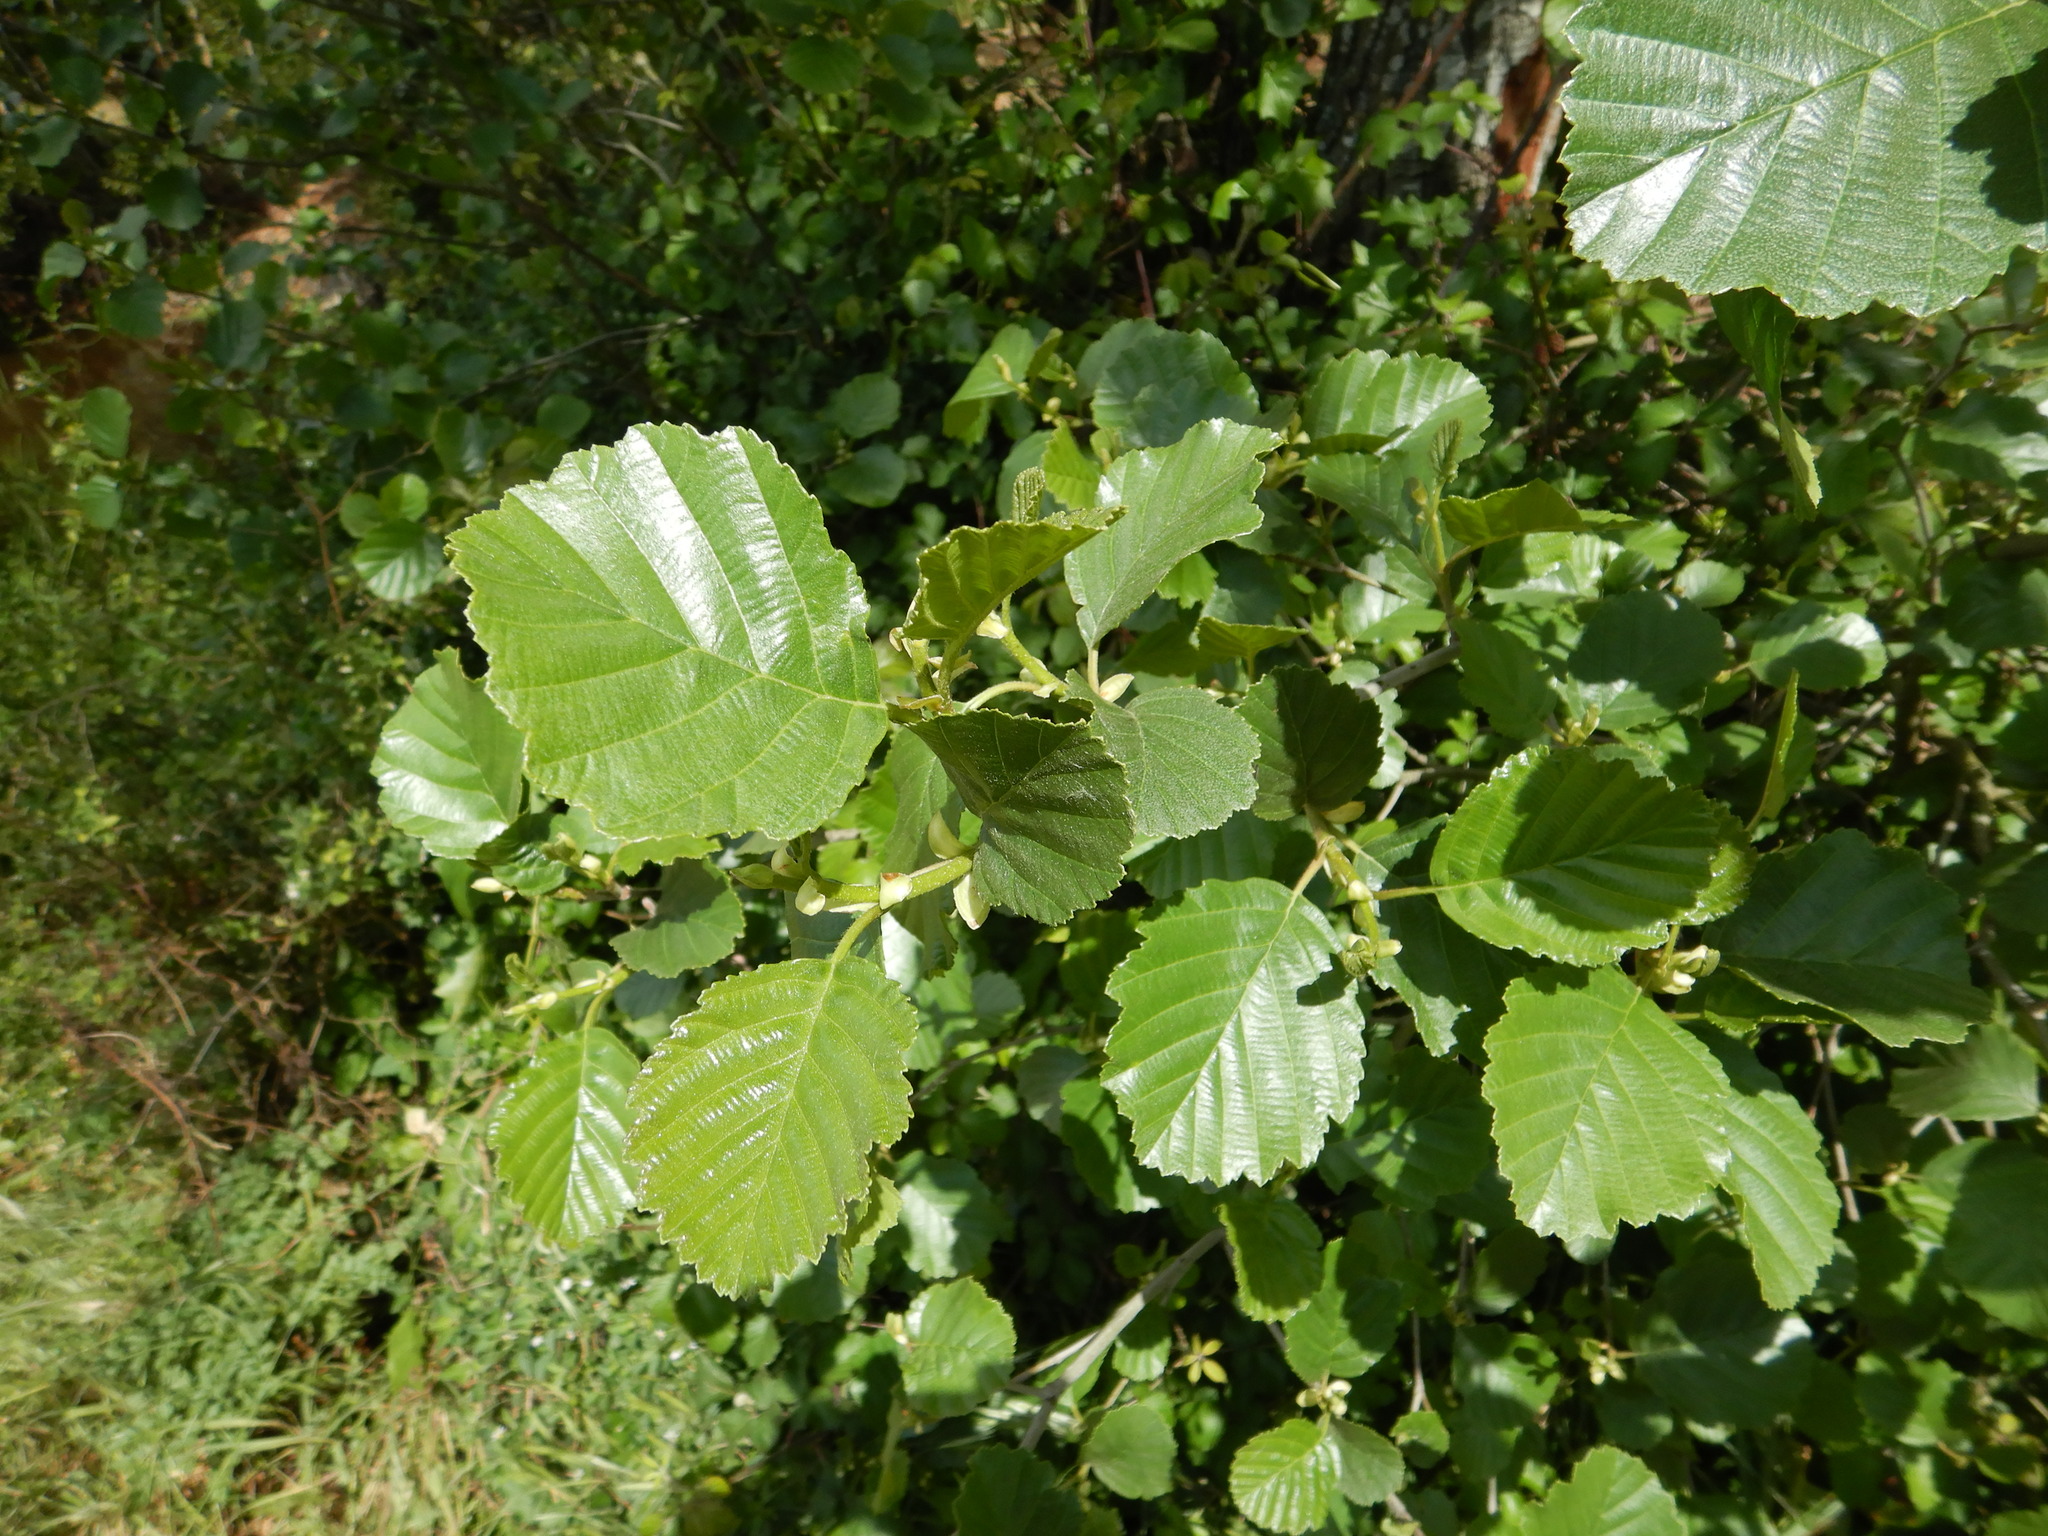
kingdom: Plantae
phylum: Tracheophyta
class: Magnoliopsida
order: Fagales
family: Betulaceae
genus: Alnus
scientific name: Alnus lusitanica
